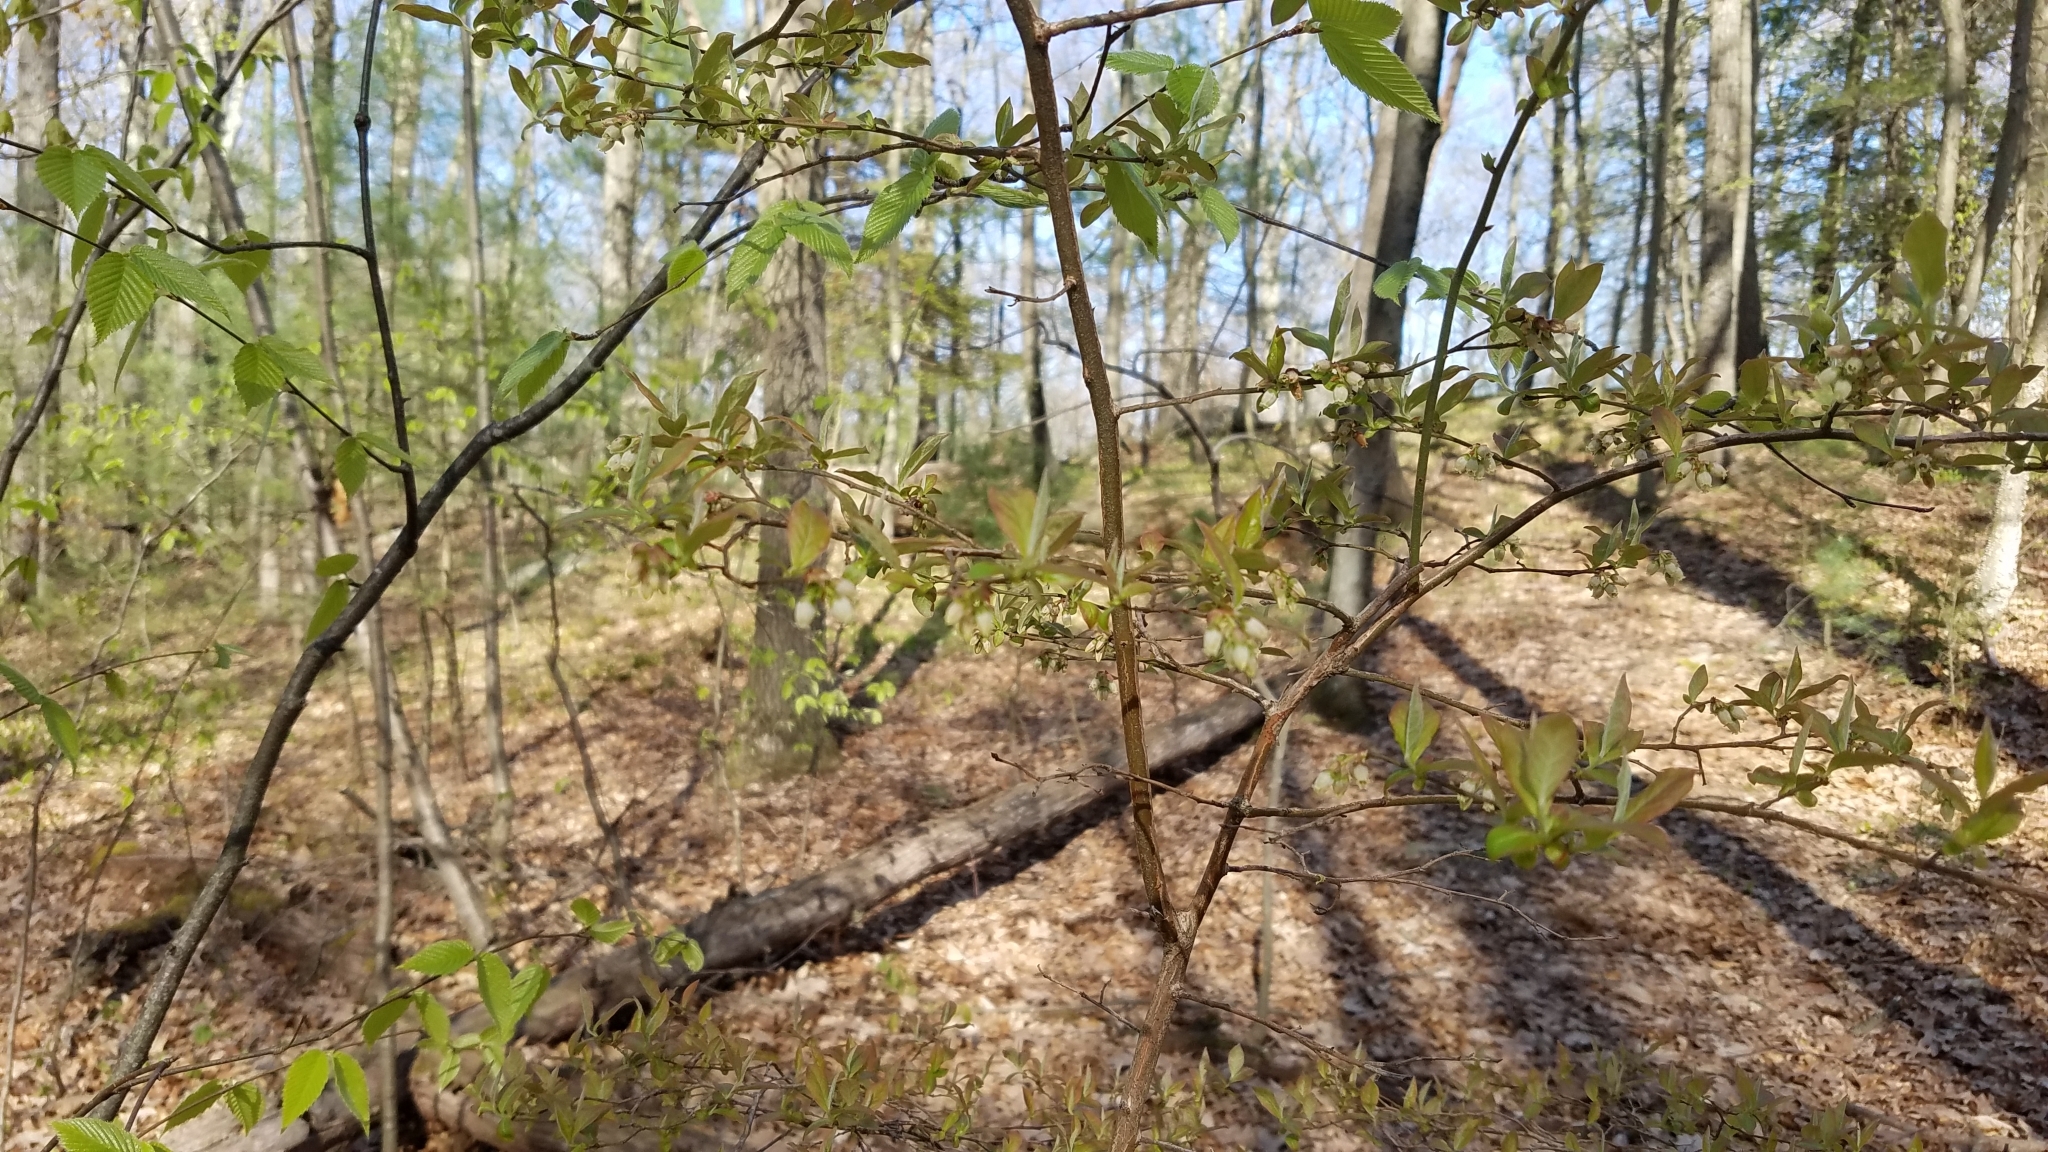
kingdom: Plantae
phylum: Tracheophyta
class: Magnoliopsida
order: Ericales
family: Ericaceae
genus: Vaccinium
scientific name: Vaccinium corymbosum
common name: Blueberry
